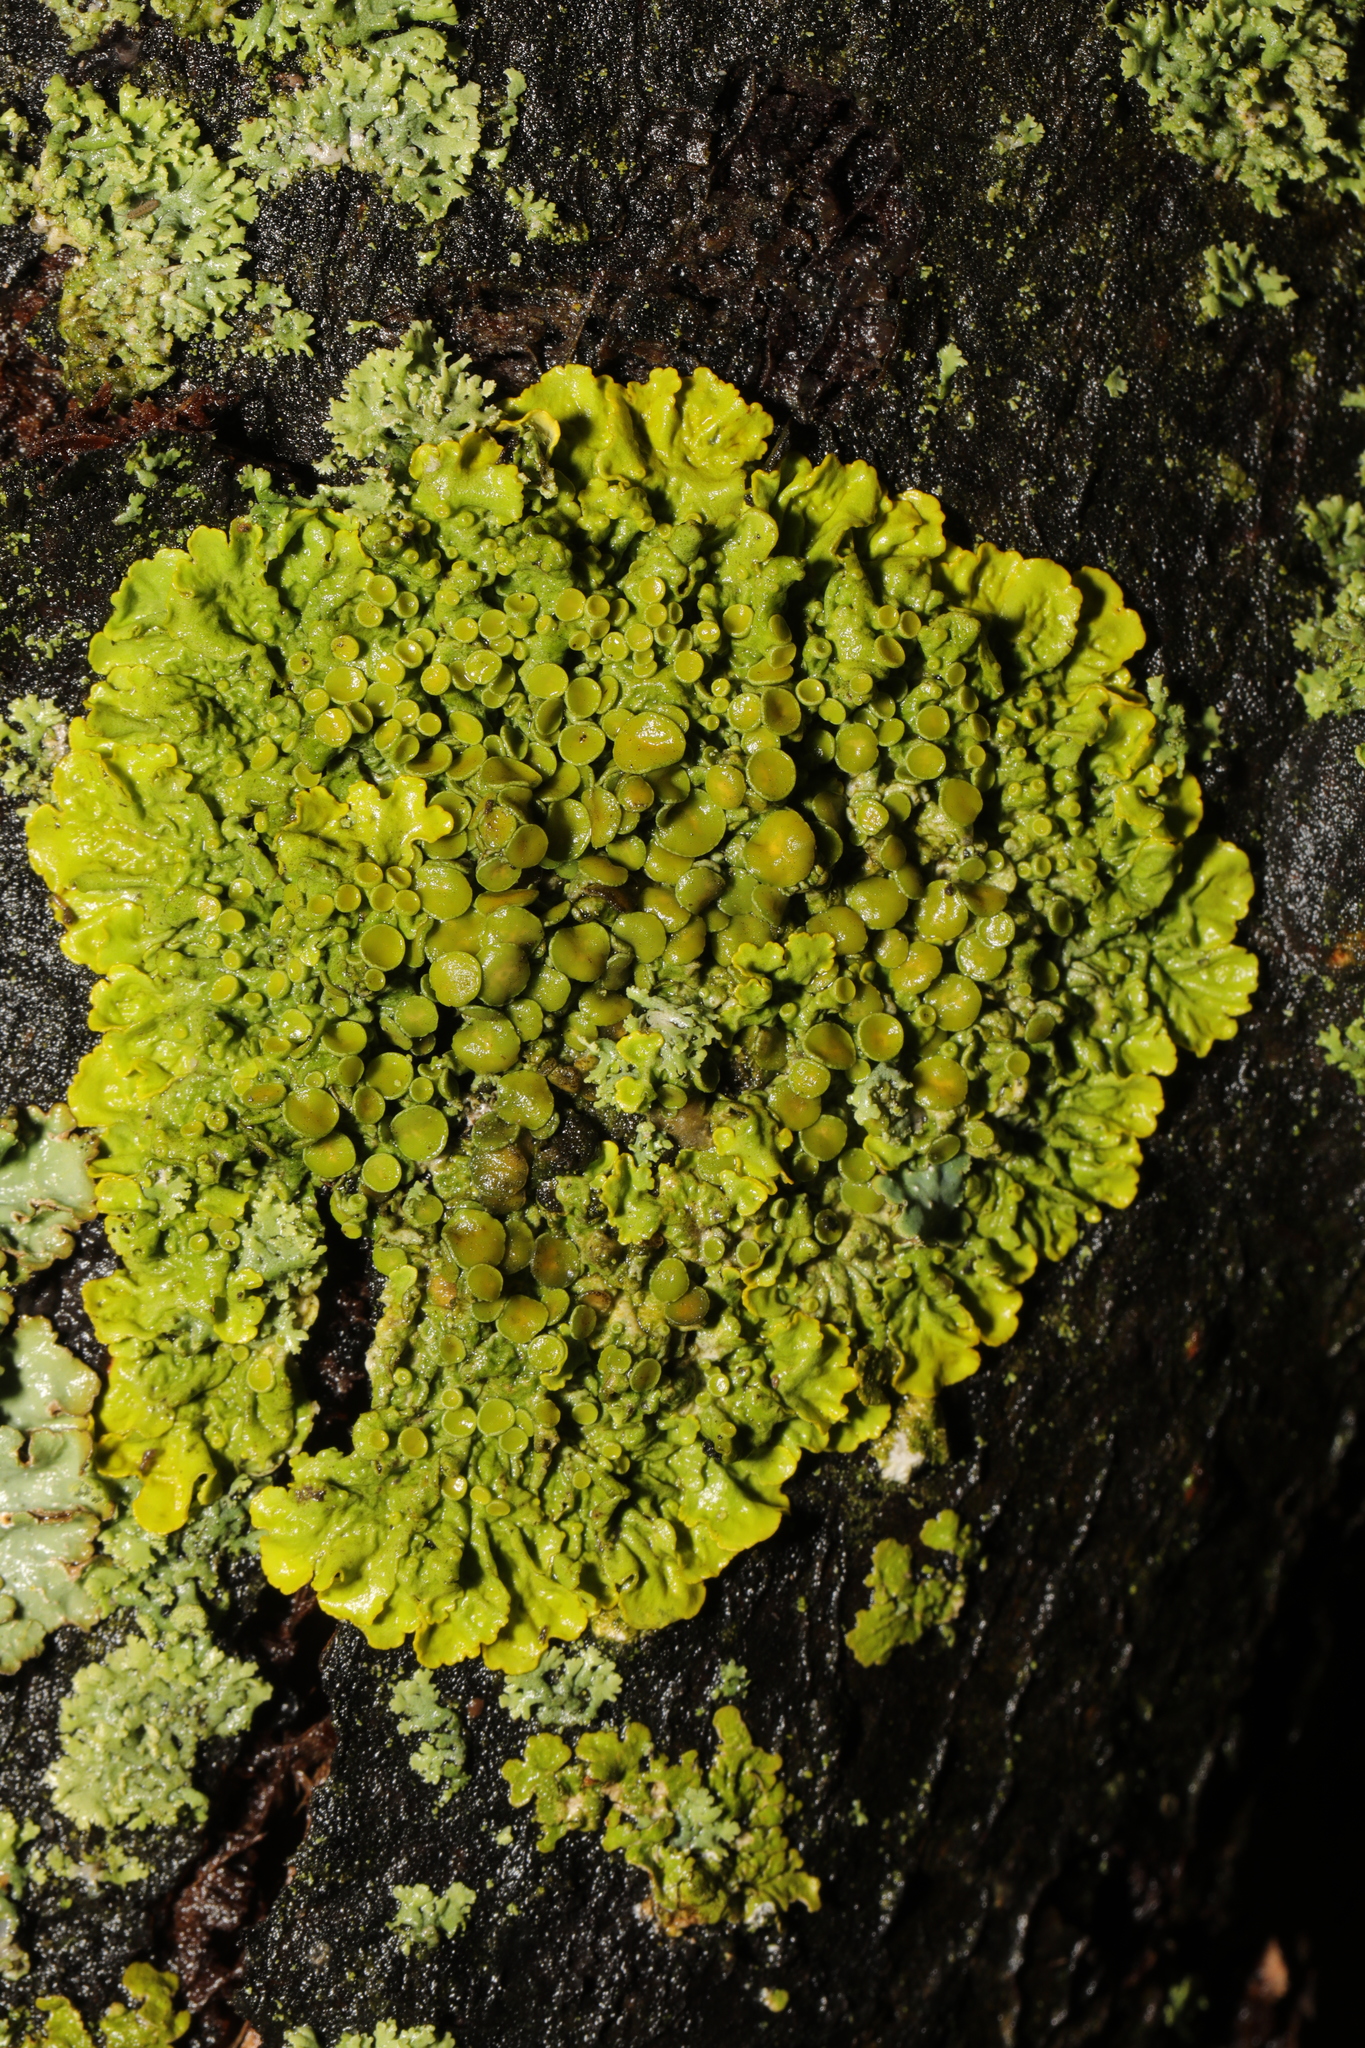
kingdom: Fungi
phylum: Ascomycota
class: Lecanoromycetes
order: Teloschistales
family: Teloschistaceae
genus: Xanthoria
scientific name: Xanthoria parietina
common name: Common orange lichen
